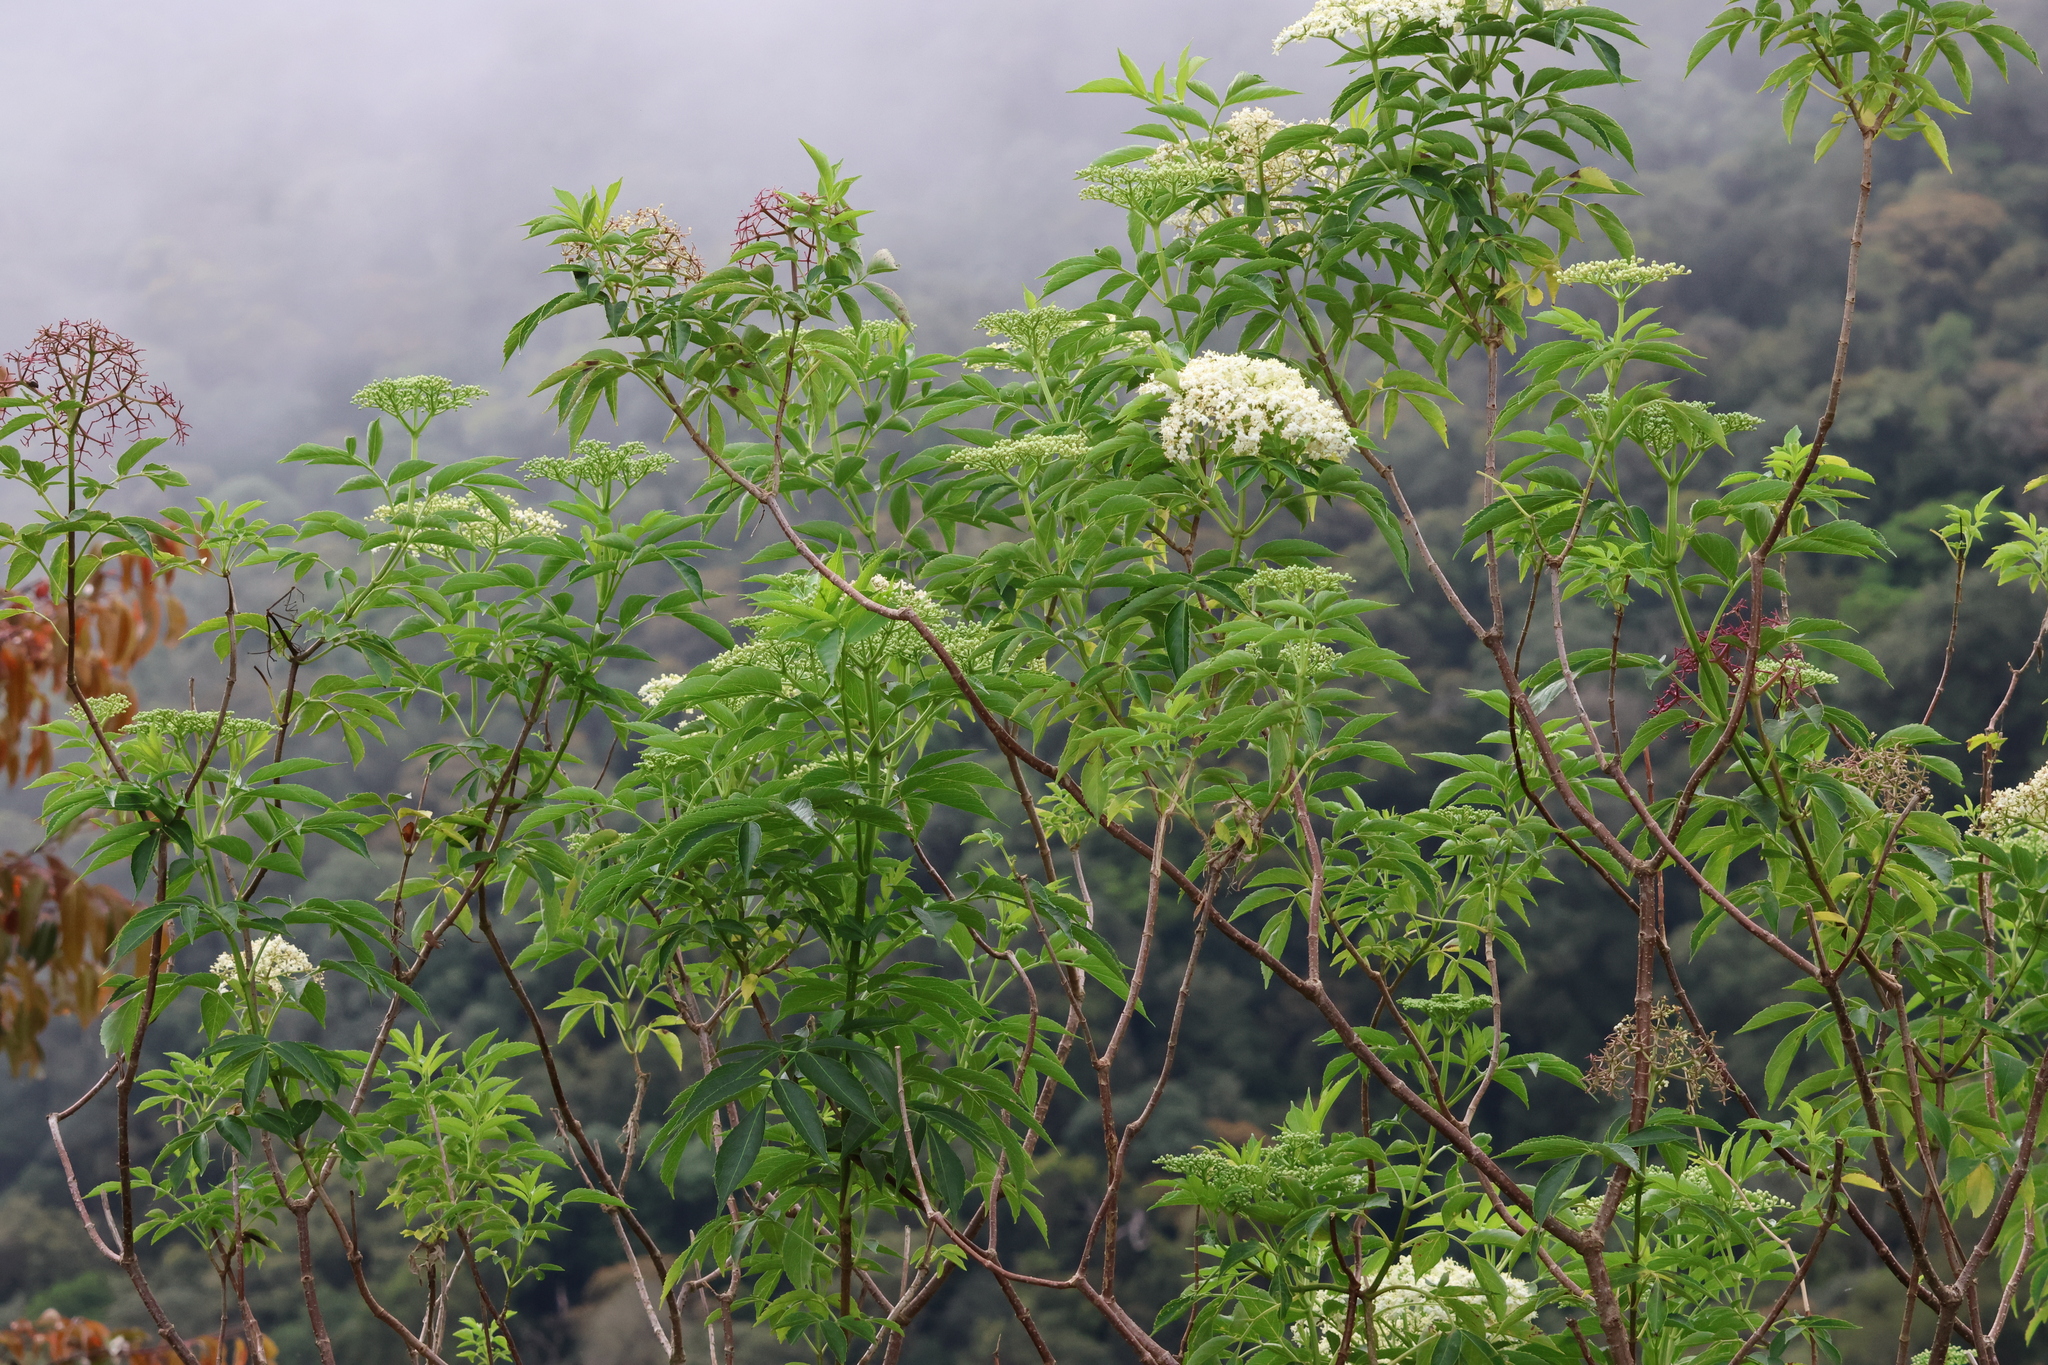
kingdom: Plantae
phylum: Tracheophyta
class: Magnoliopsida
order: Dipsacales
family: Viburnaceae
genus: Sambucus
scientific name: Sambucus canadensis
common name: American elder
